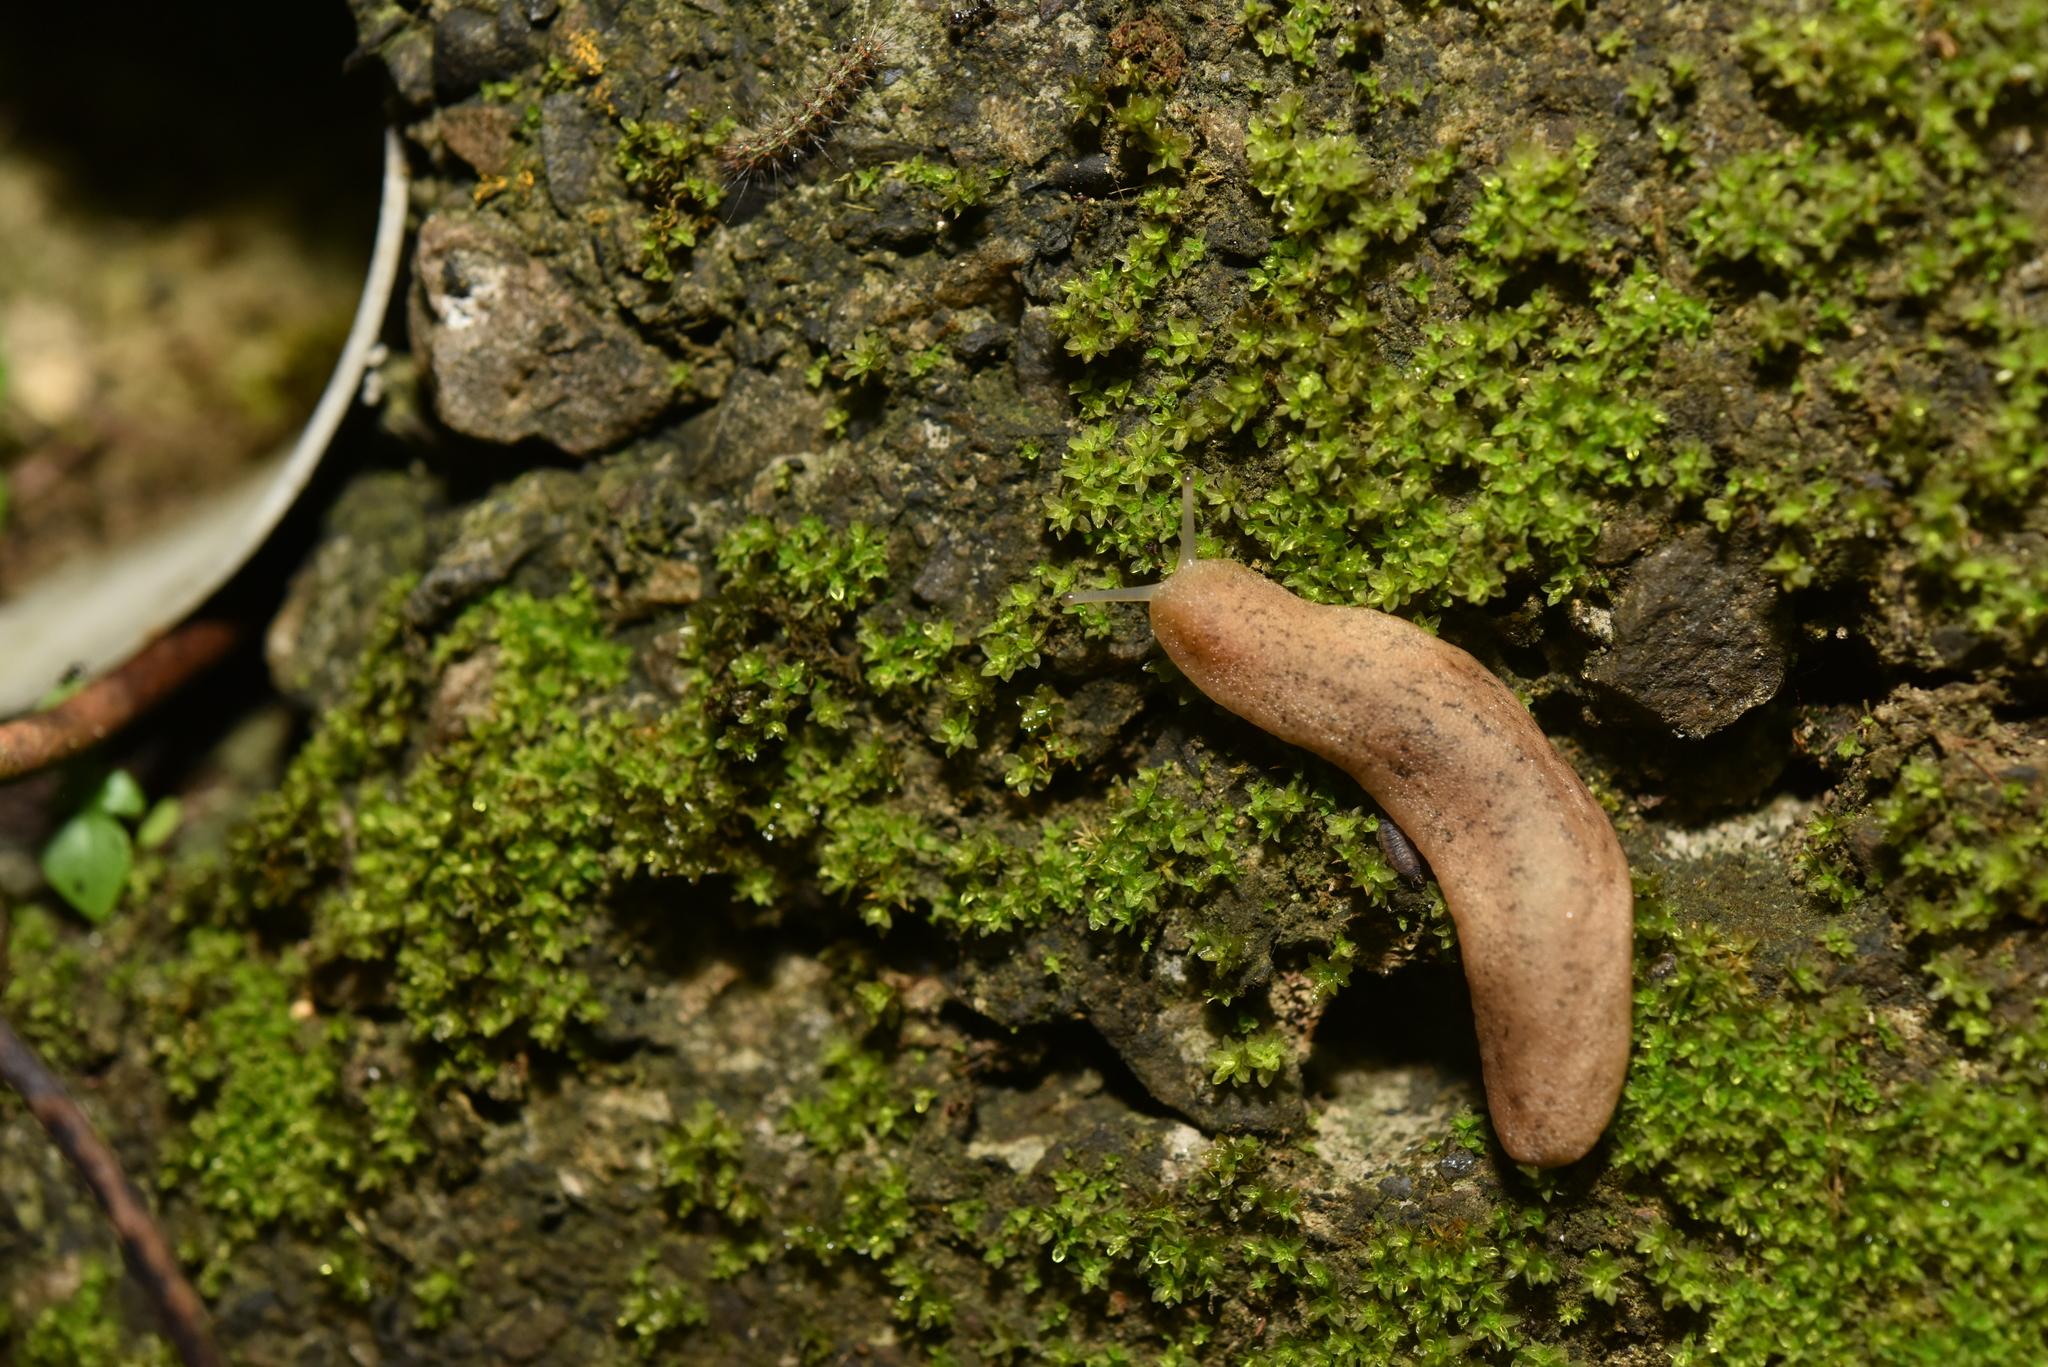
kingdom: Animalia
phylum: Mollusca
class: Gastropoda
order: Systellommatophora
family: Veronicellidae
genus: Sarasinula
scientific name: Sarasinula plebeia
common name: Caribbean leatherleaf
